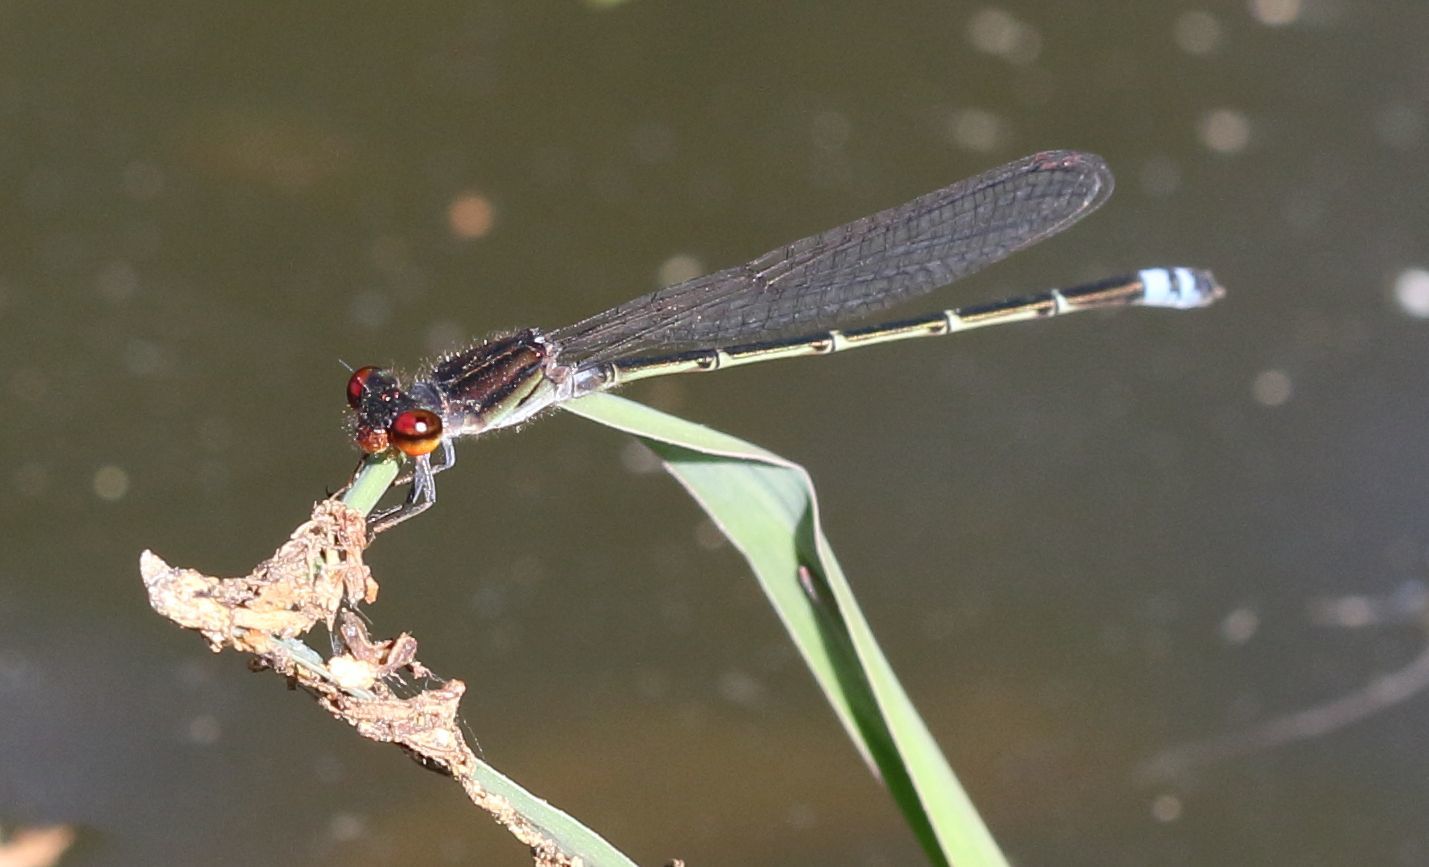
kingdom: Animalia
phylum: Arthropoda
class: Insecta
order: Odonata
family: Coenagrionidae
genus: Pseudagrion
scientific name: Pseudagrion hamoni
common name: Swarthy sprite
